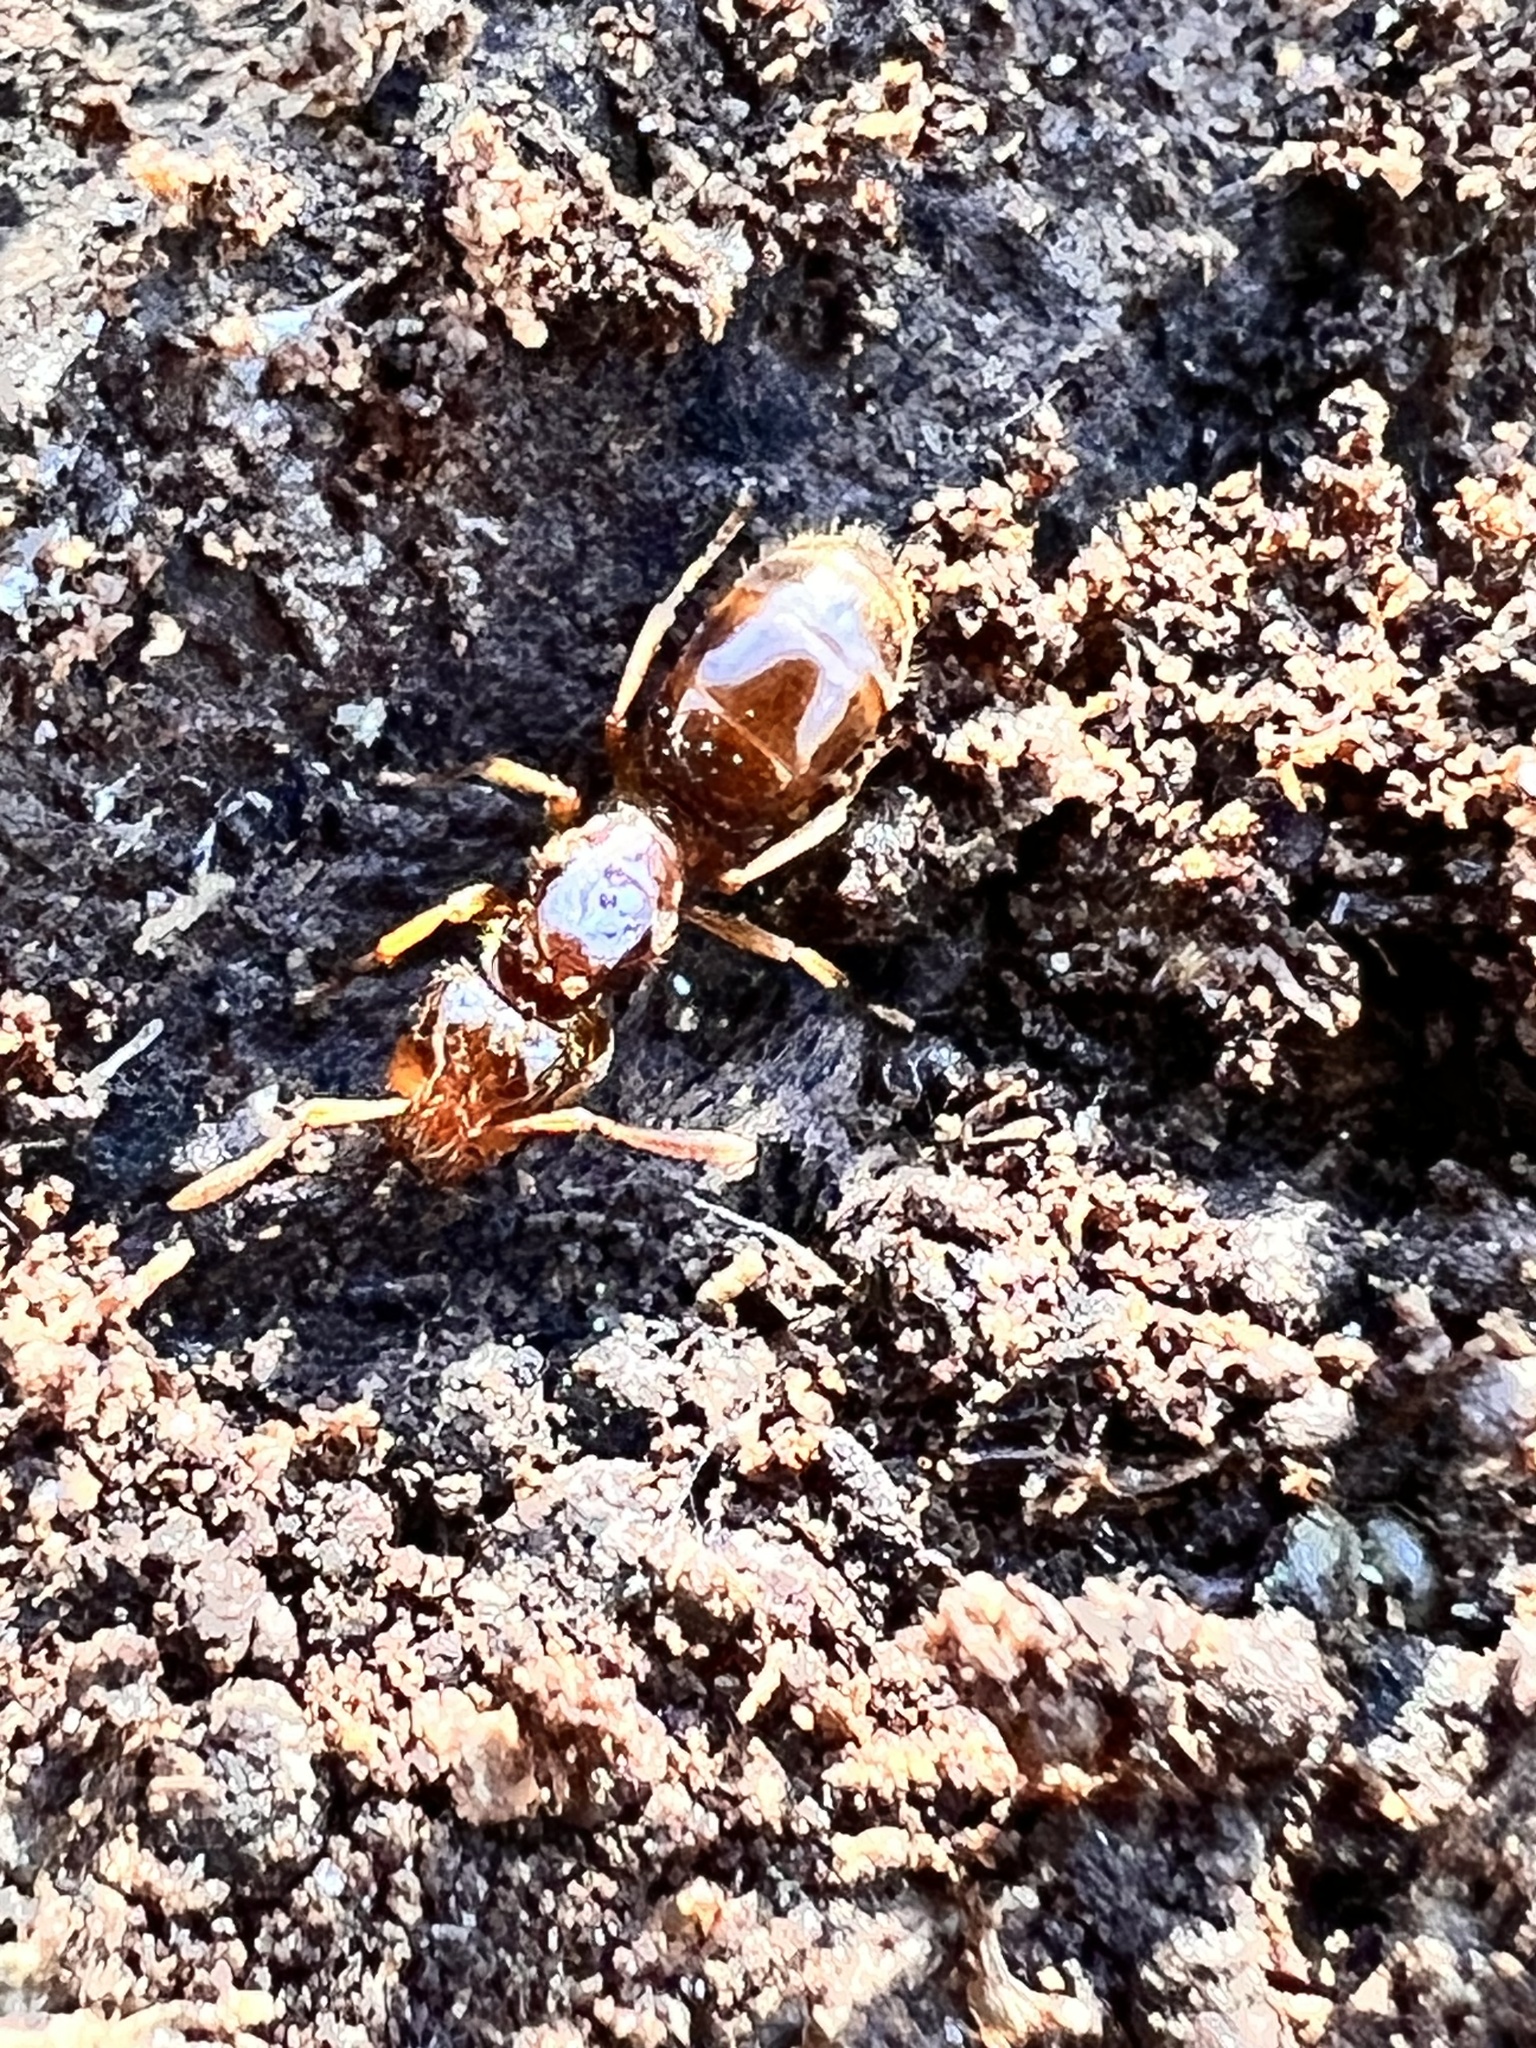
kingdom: Animalia
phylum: Arthropoda
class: Insecta
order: Hymenoptera
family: Formicidae
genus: Lasius
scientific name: Lasius claviger
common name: Common citronella ant
